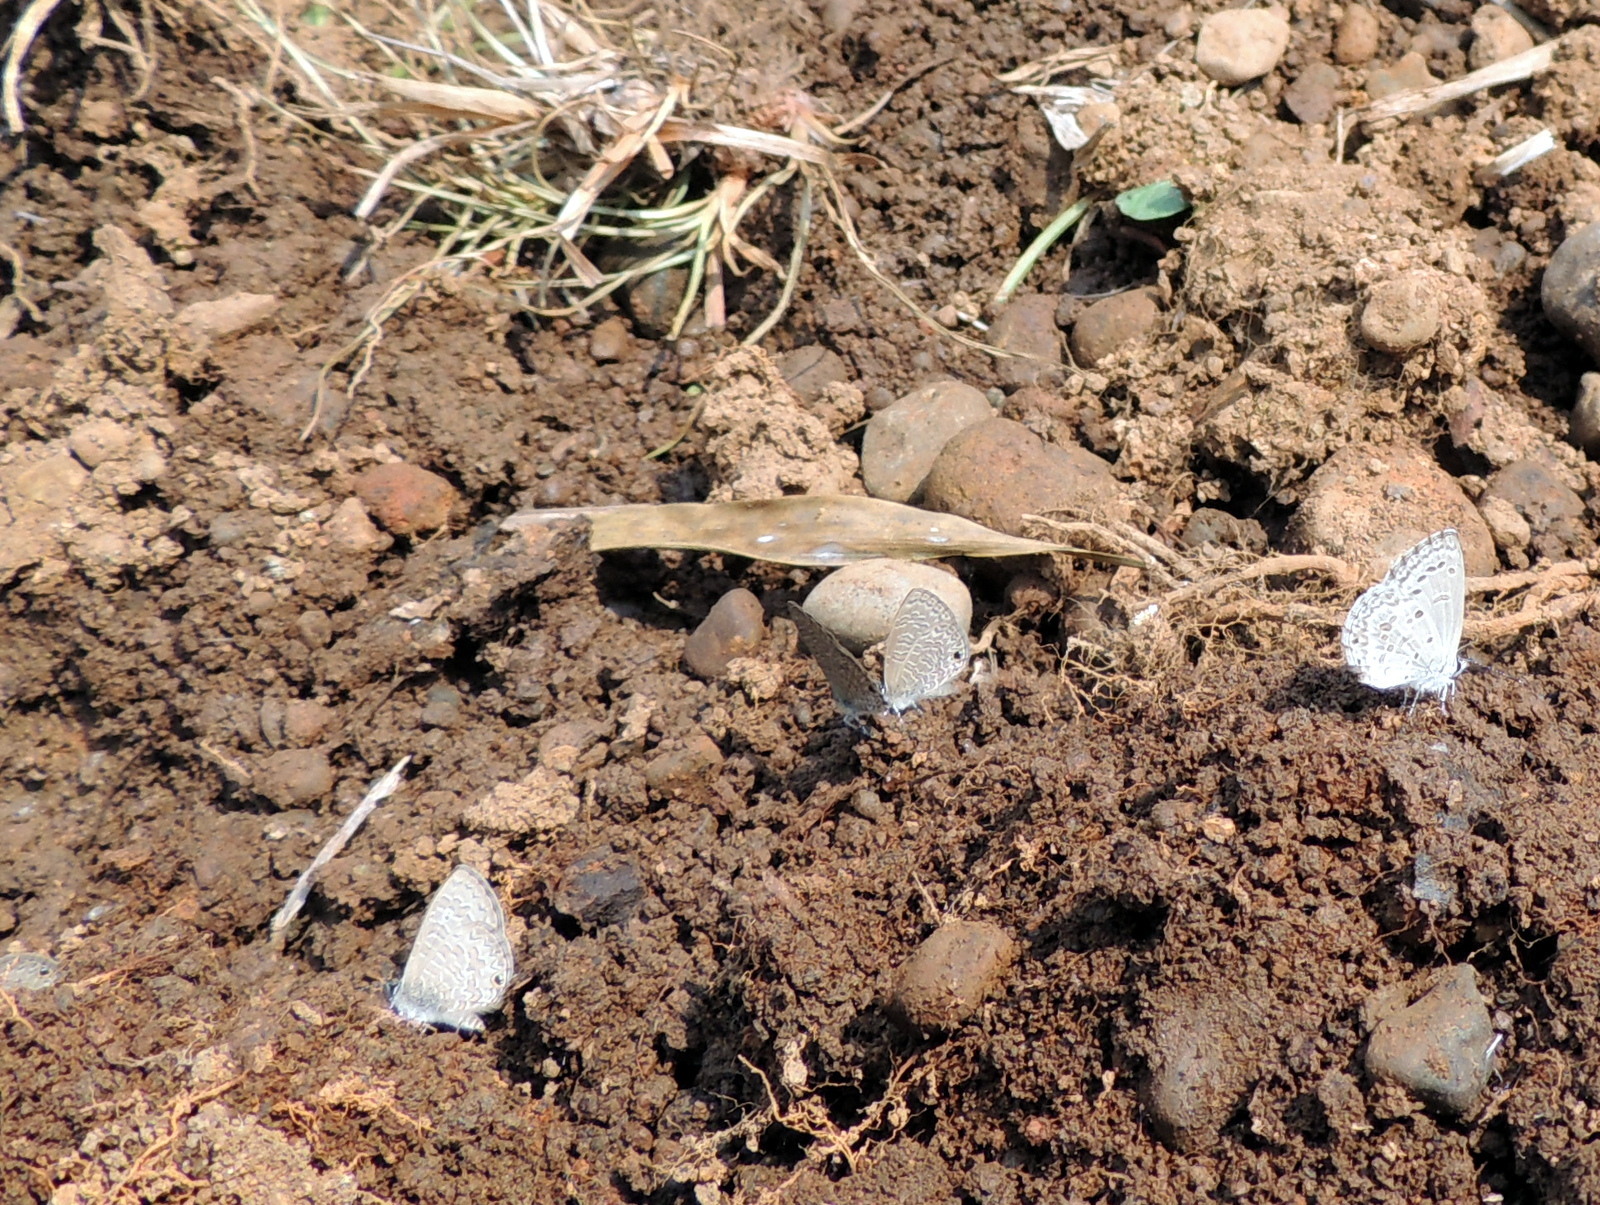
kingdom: Animalia
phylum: Arthropoda
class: Insecta
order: Lepidoptera
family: Lycaenidae
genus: Prosotas
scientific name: Prosotas nora
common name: Common line blue
